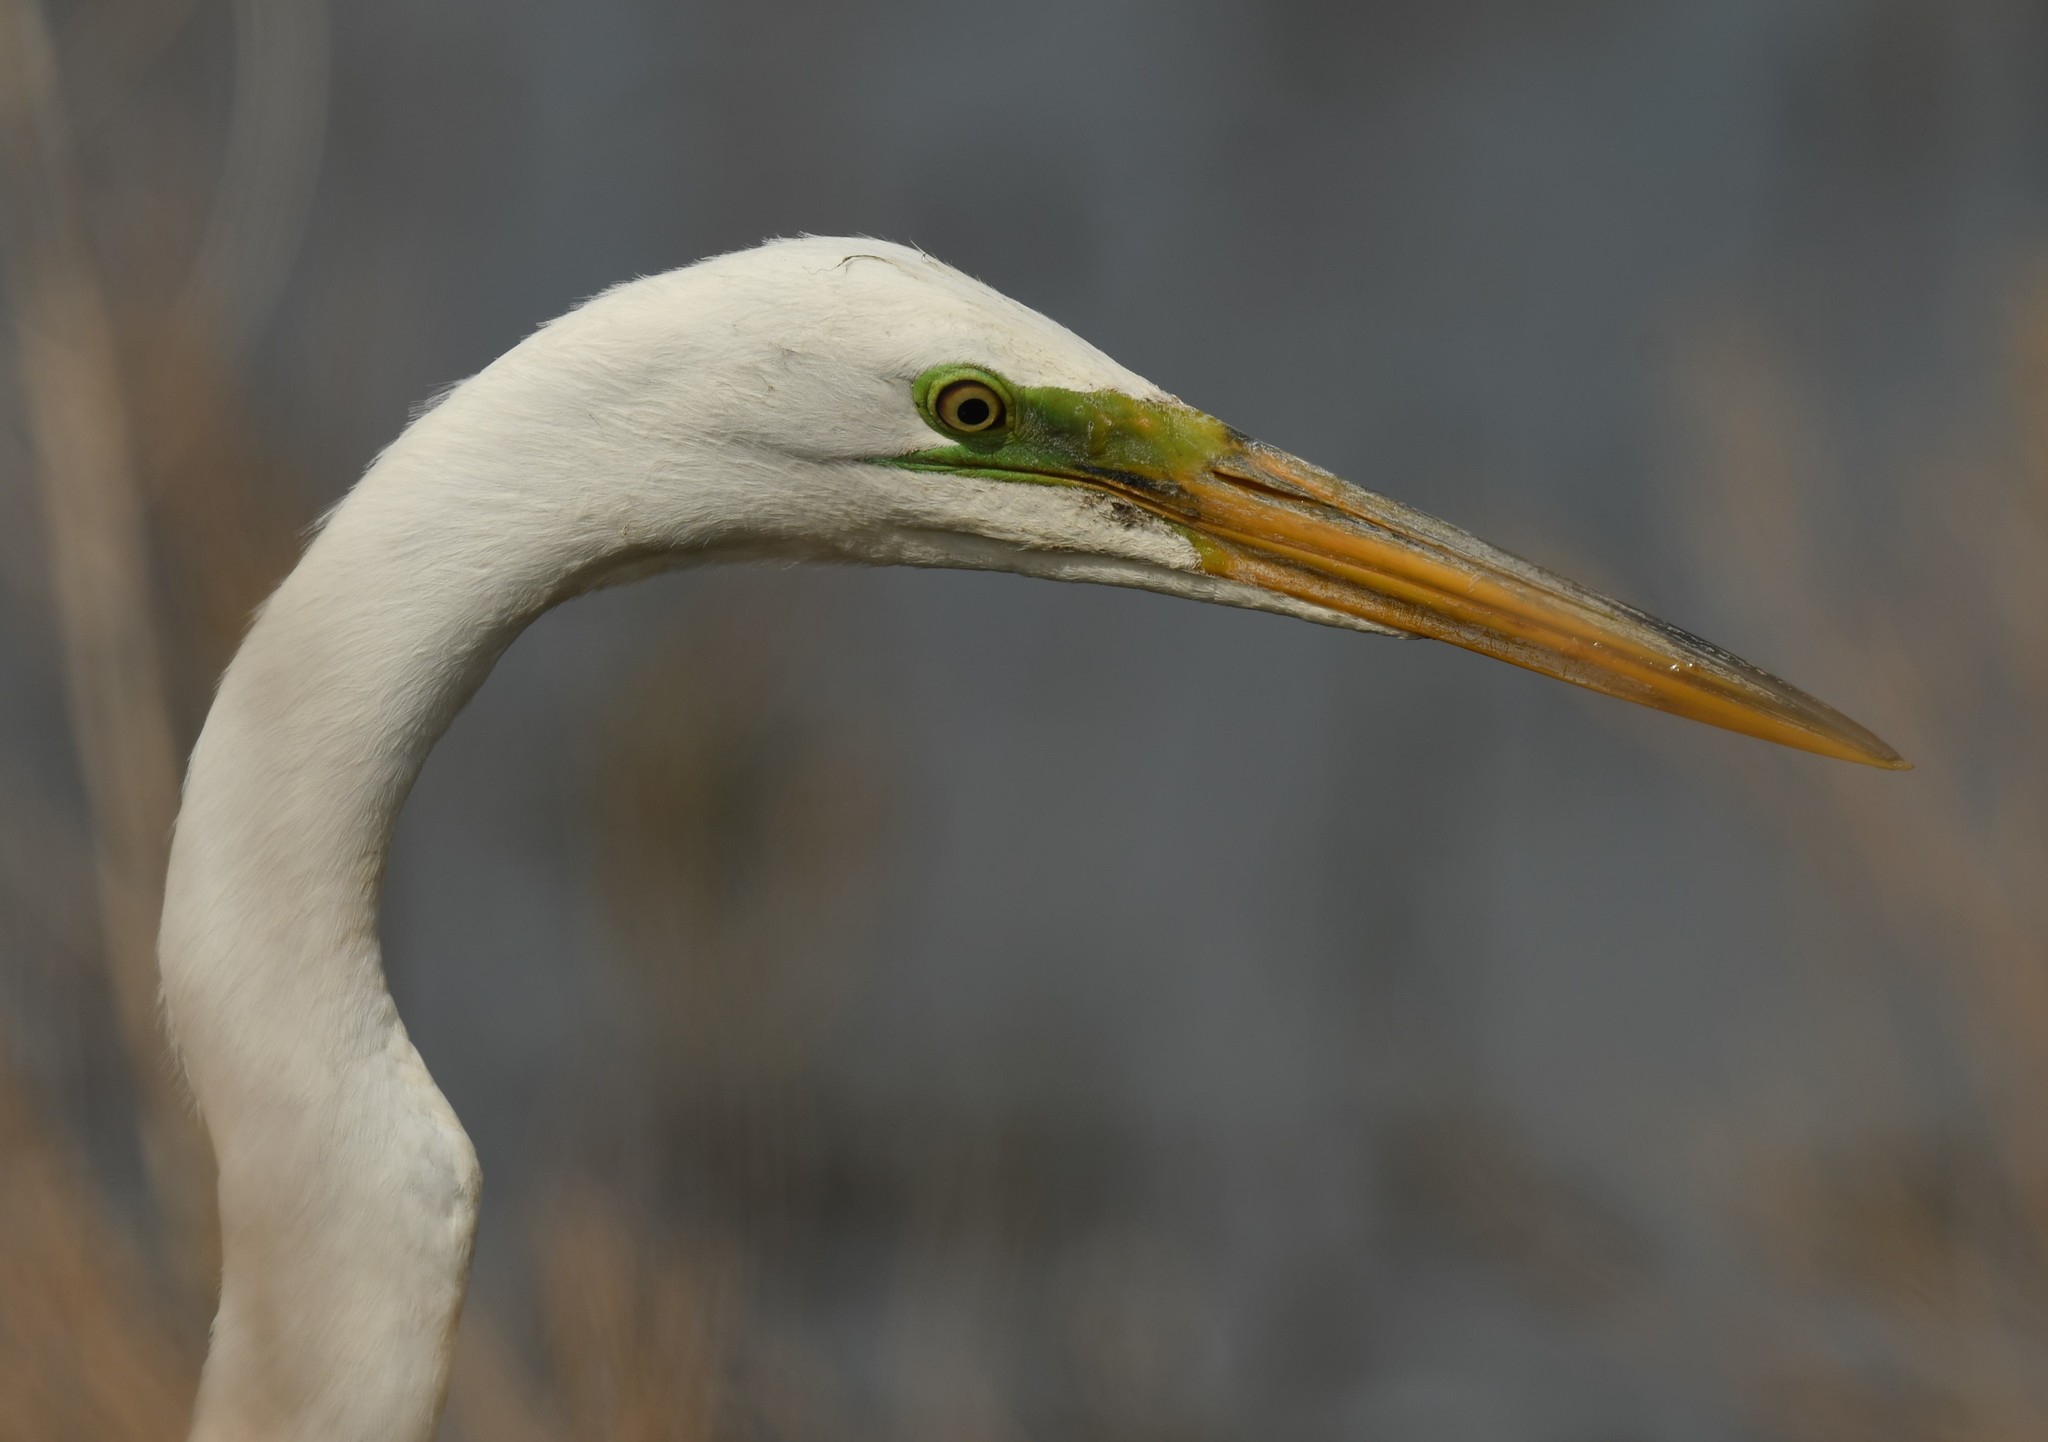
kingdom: Animalia
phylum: Chordata
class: Aves
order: Pelecaniformes
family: Ardeidae
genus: Ardea
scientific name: Ardea alba
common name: Great egret
